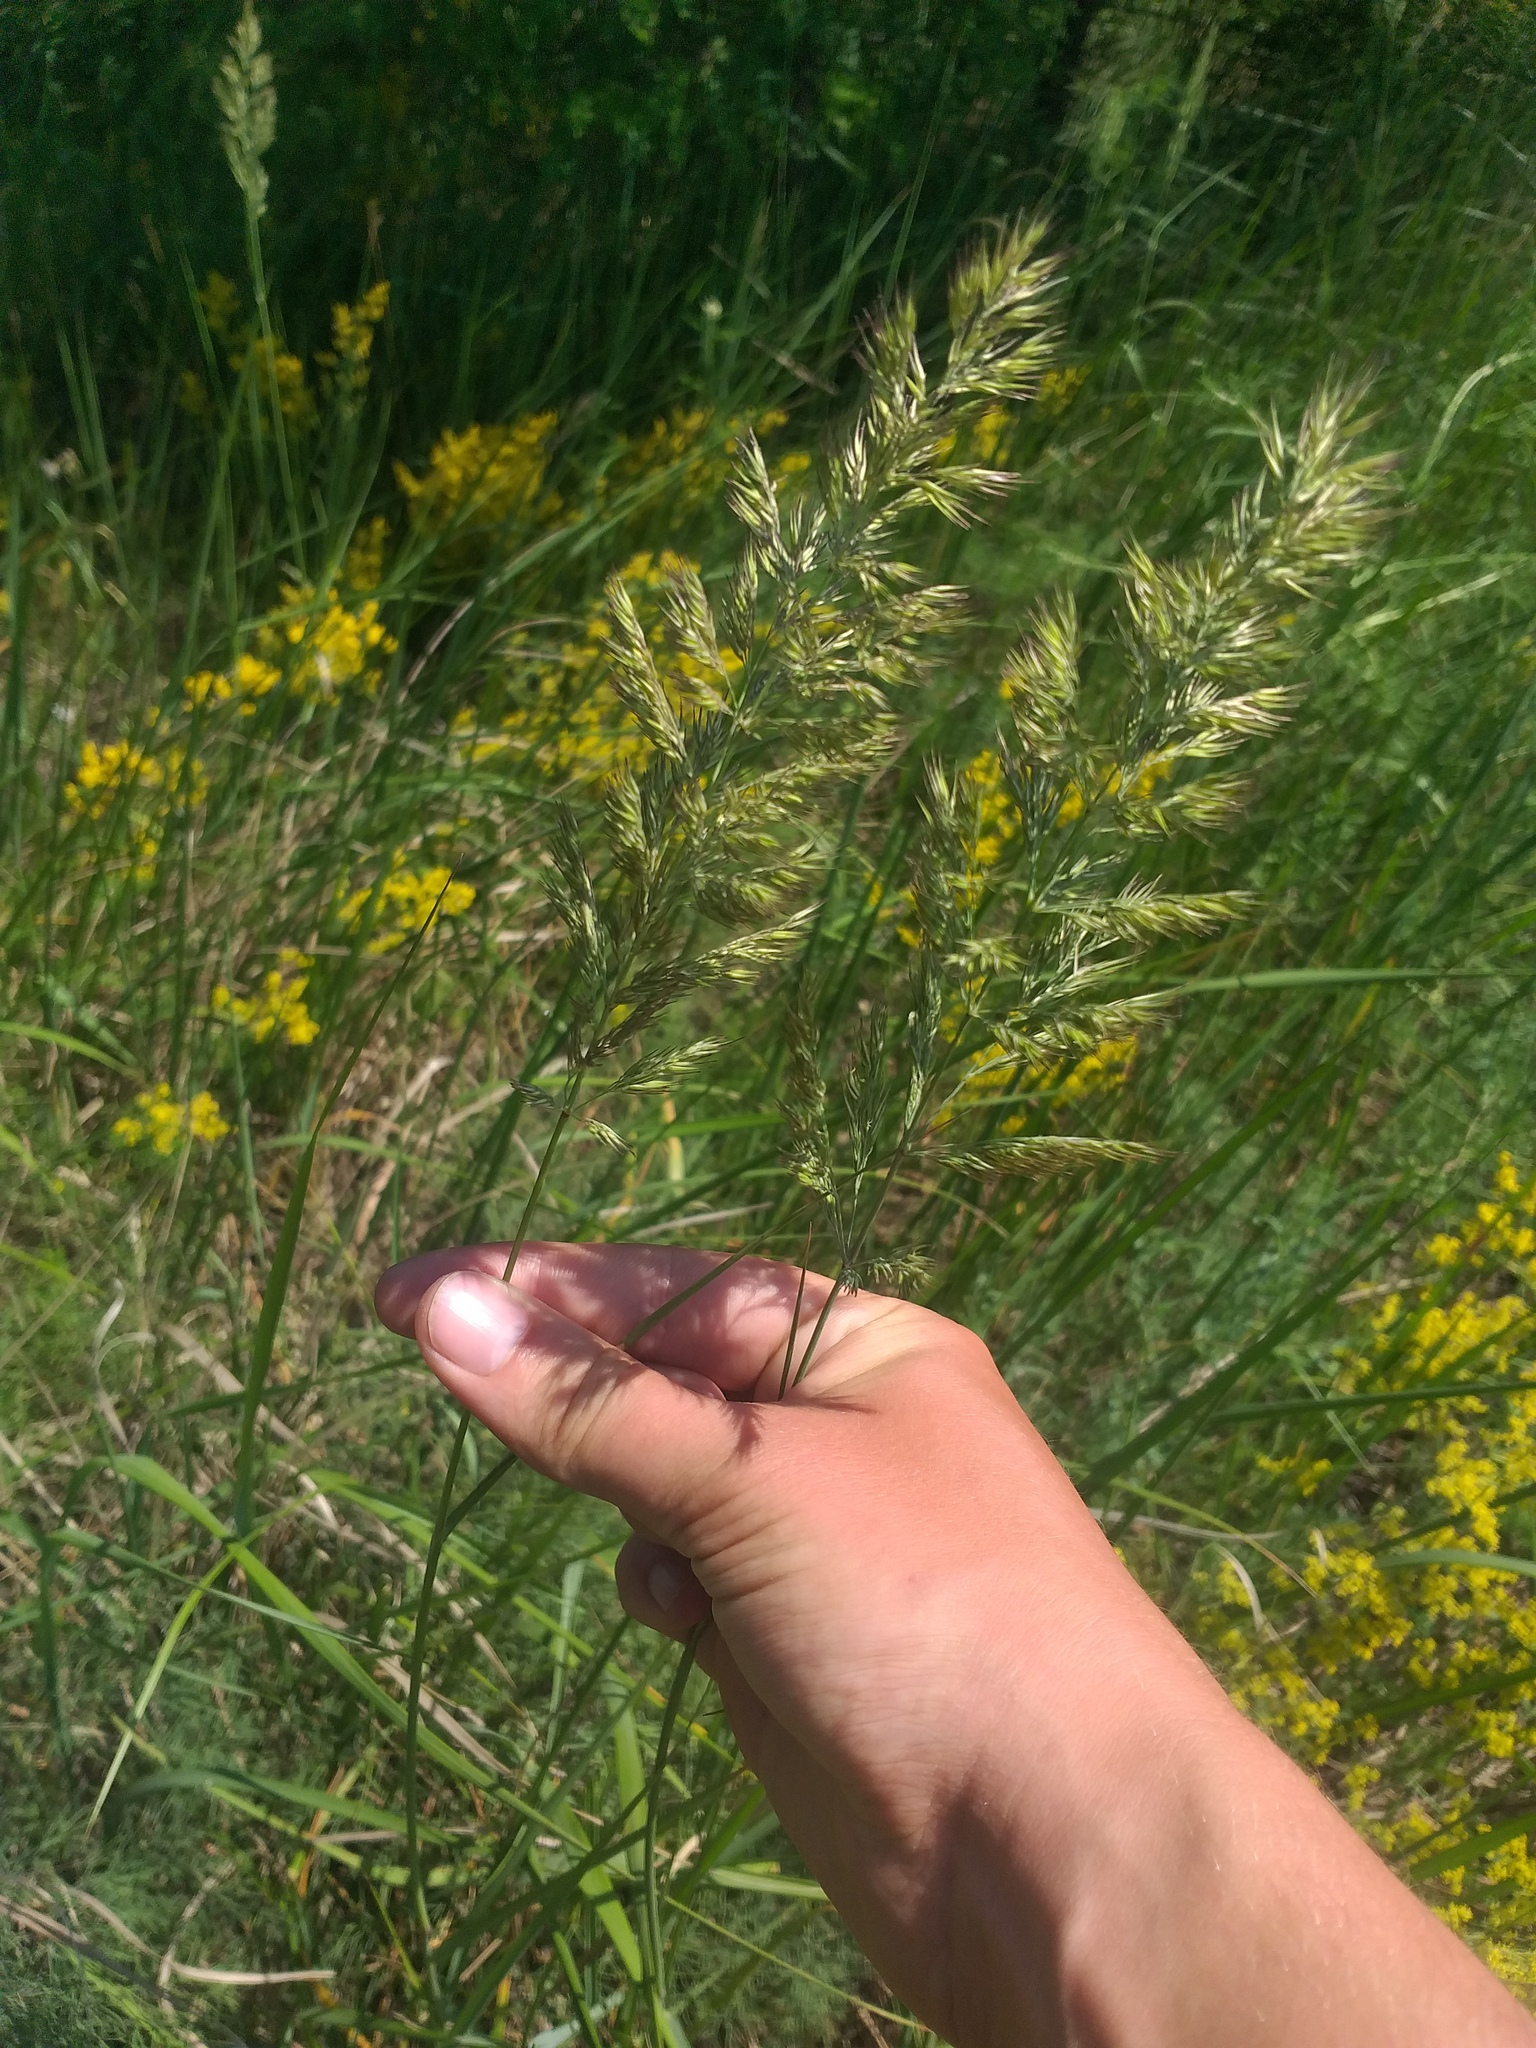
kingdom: Plantae
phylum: Tracheophyta
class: Liliopsida
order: Poales
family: Poaceae
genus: Calamagrostis
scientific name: Calamagrostis epigejos
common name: Wood small-reed
